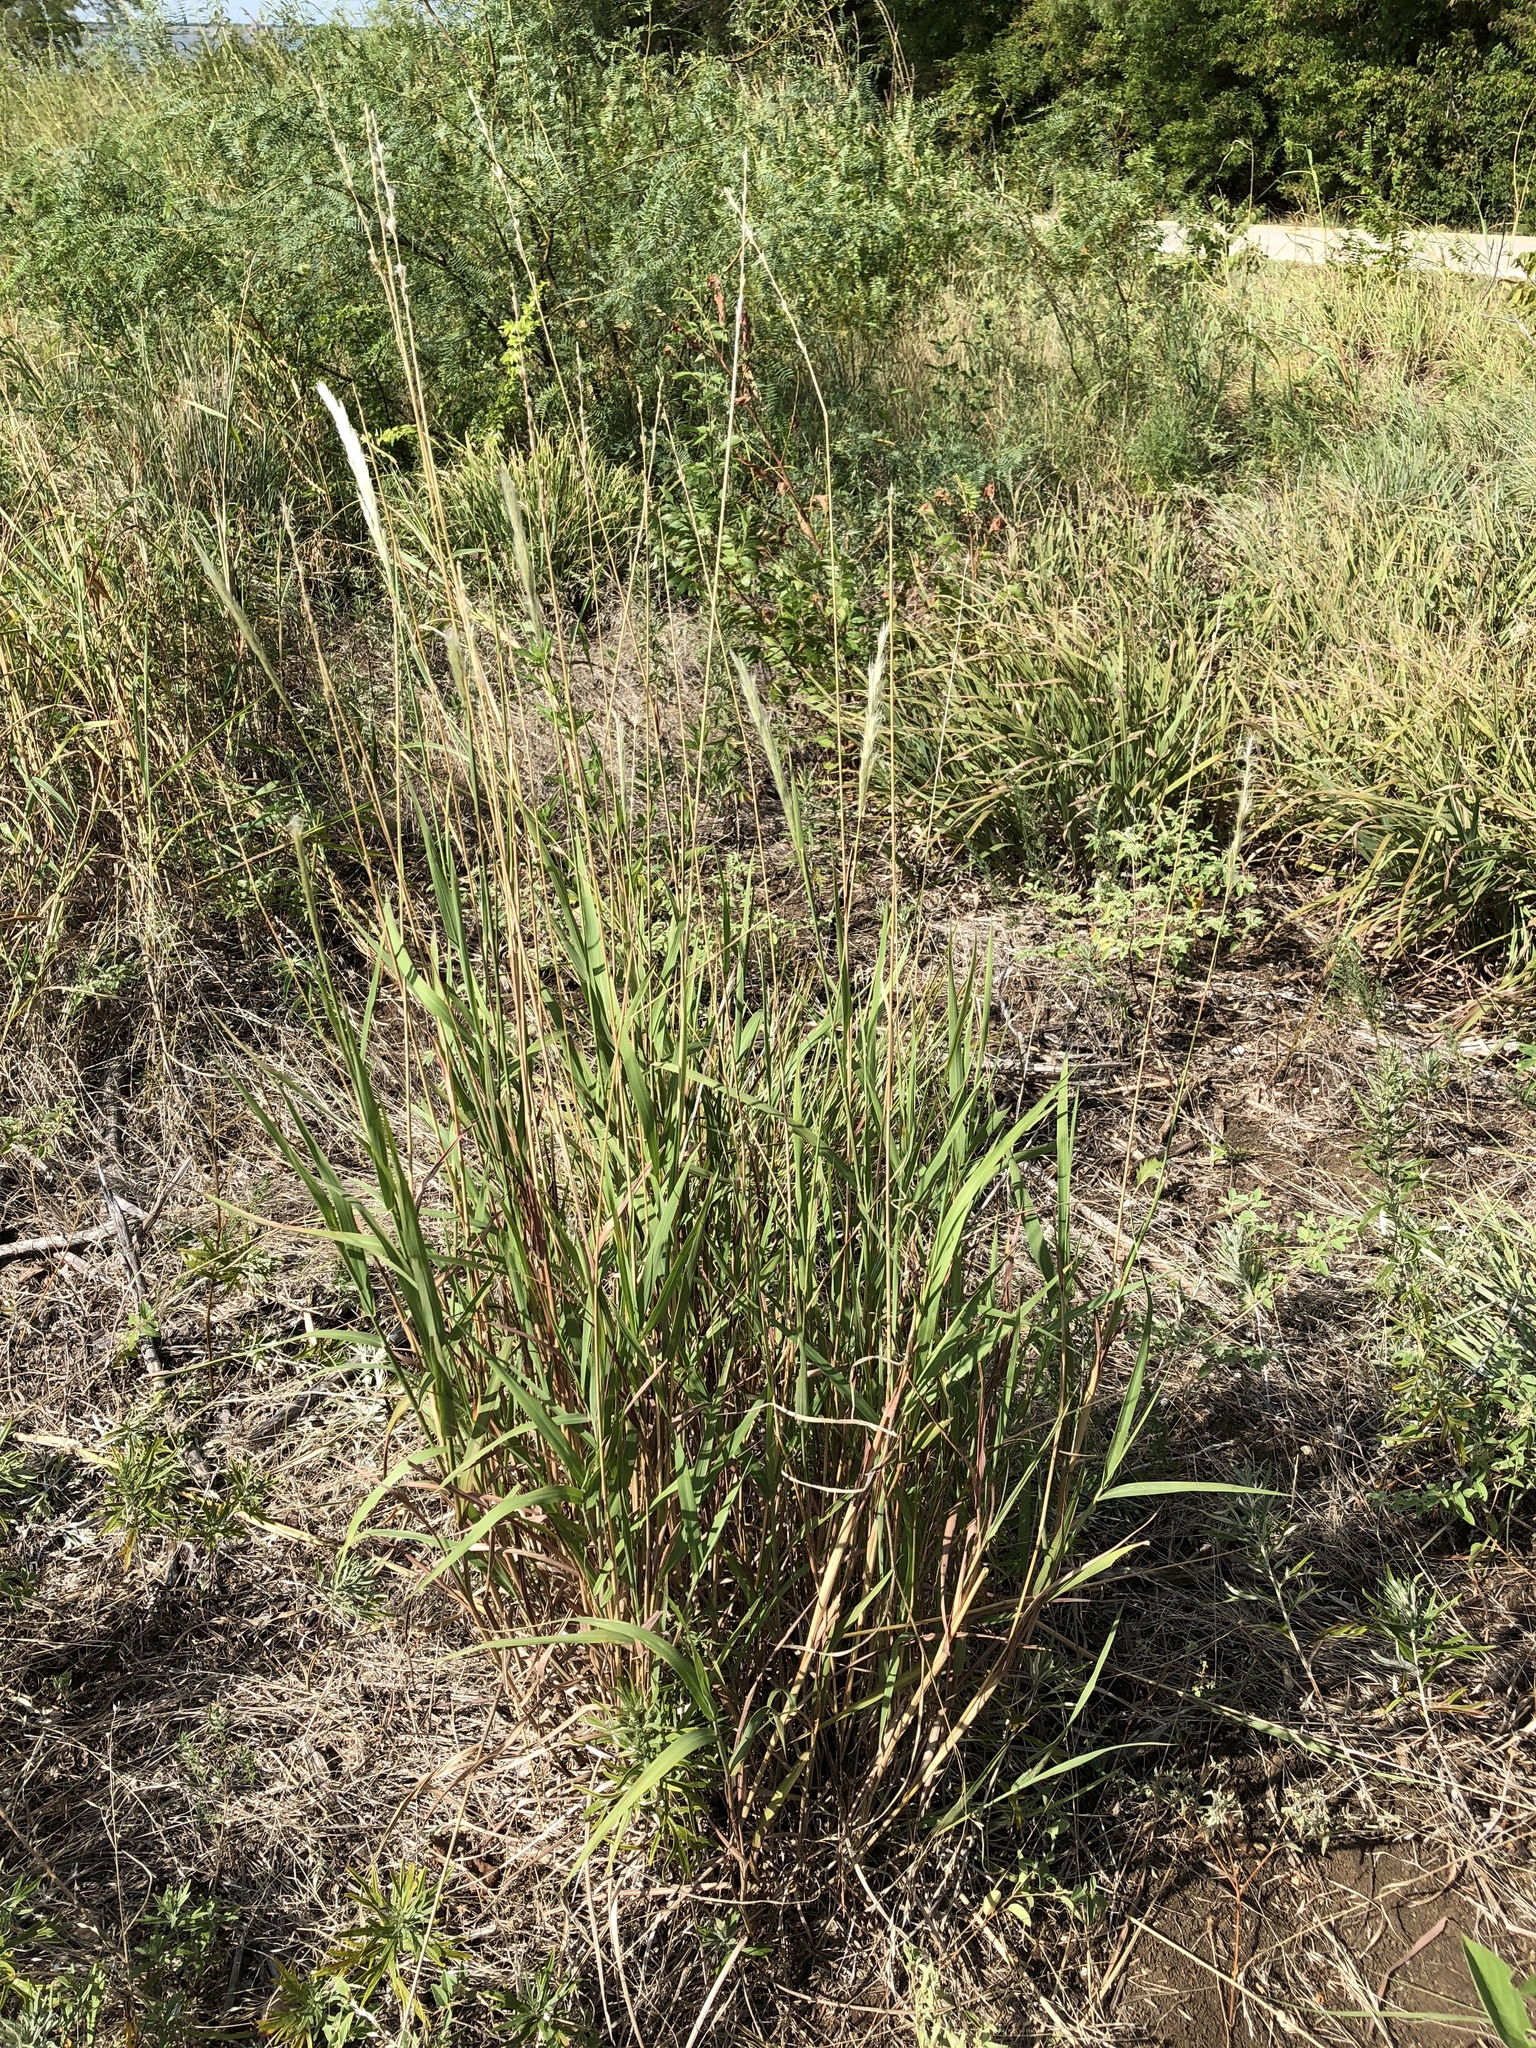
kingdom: Plantae
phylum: Tracheophyta
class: Liliopsida
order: Poales
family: Poaceae
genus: Bothriochloa
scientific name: Bothriochloa torreyana
